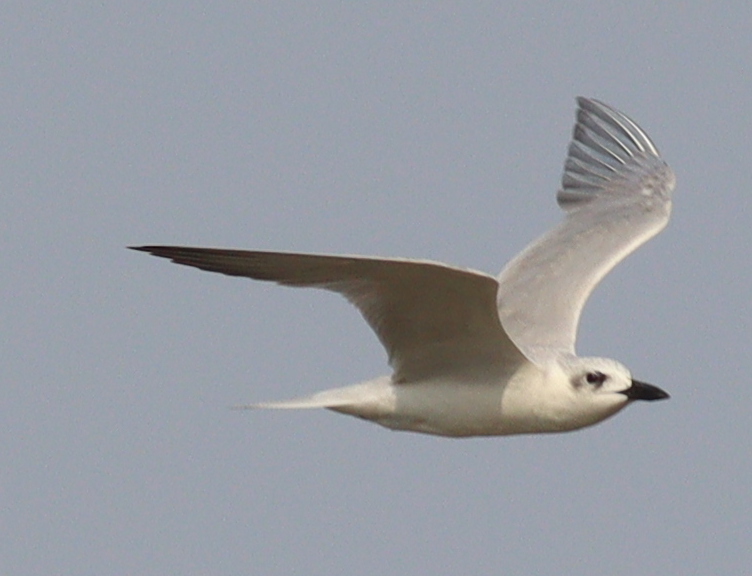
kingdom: Animalia
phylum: Chordata
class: Aves
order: Charadriiformes
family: Laridae
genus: Gelochelidon
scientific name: Gelochelidon nilotica
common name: Gull-billed tern
